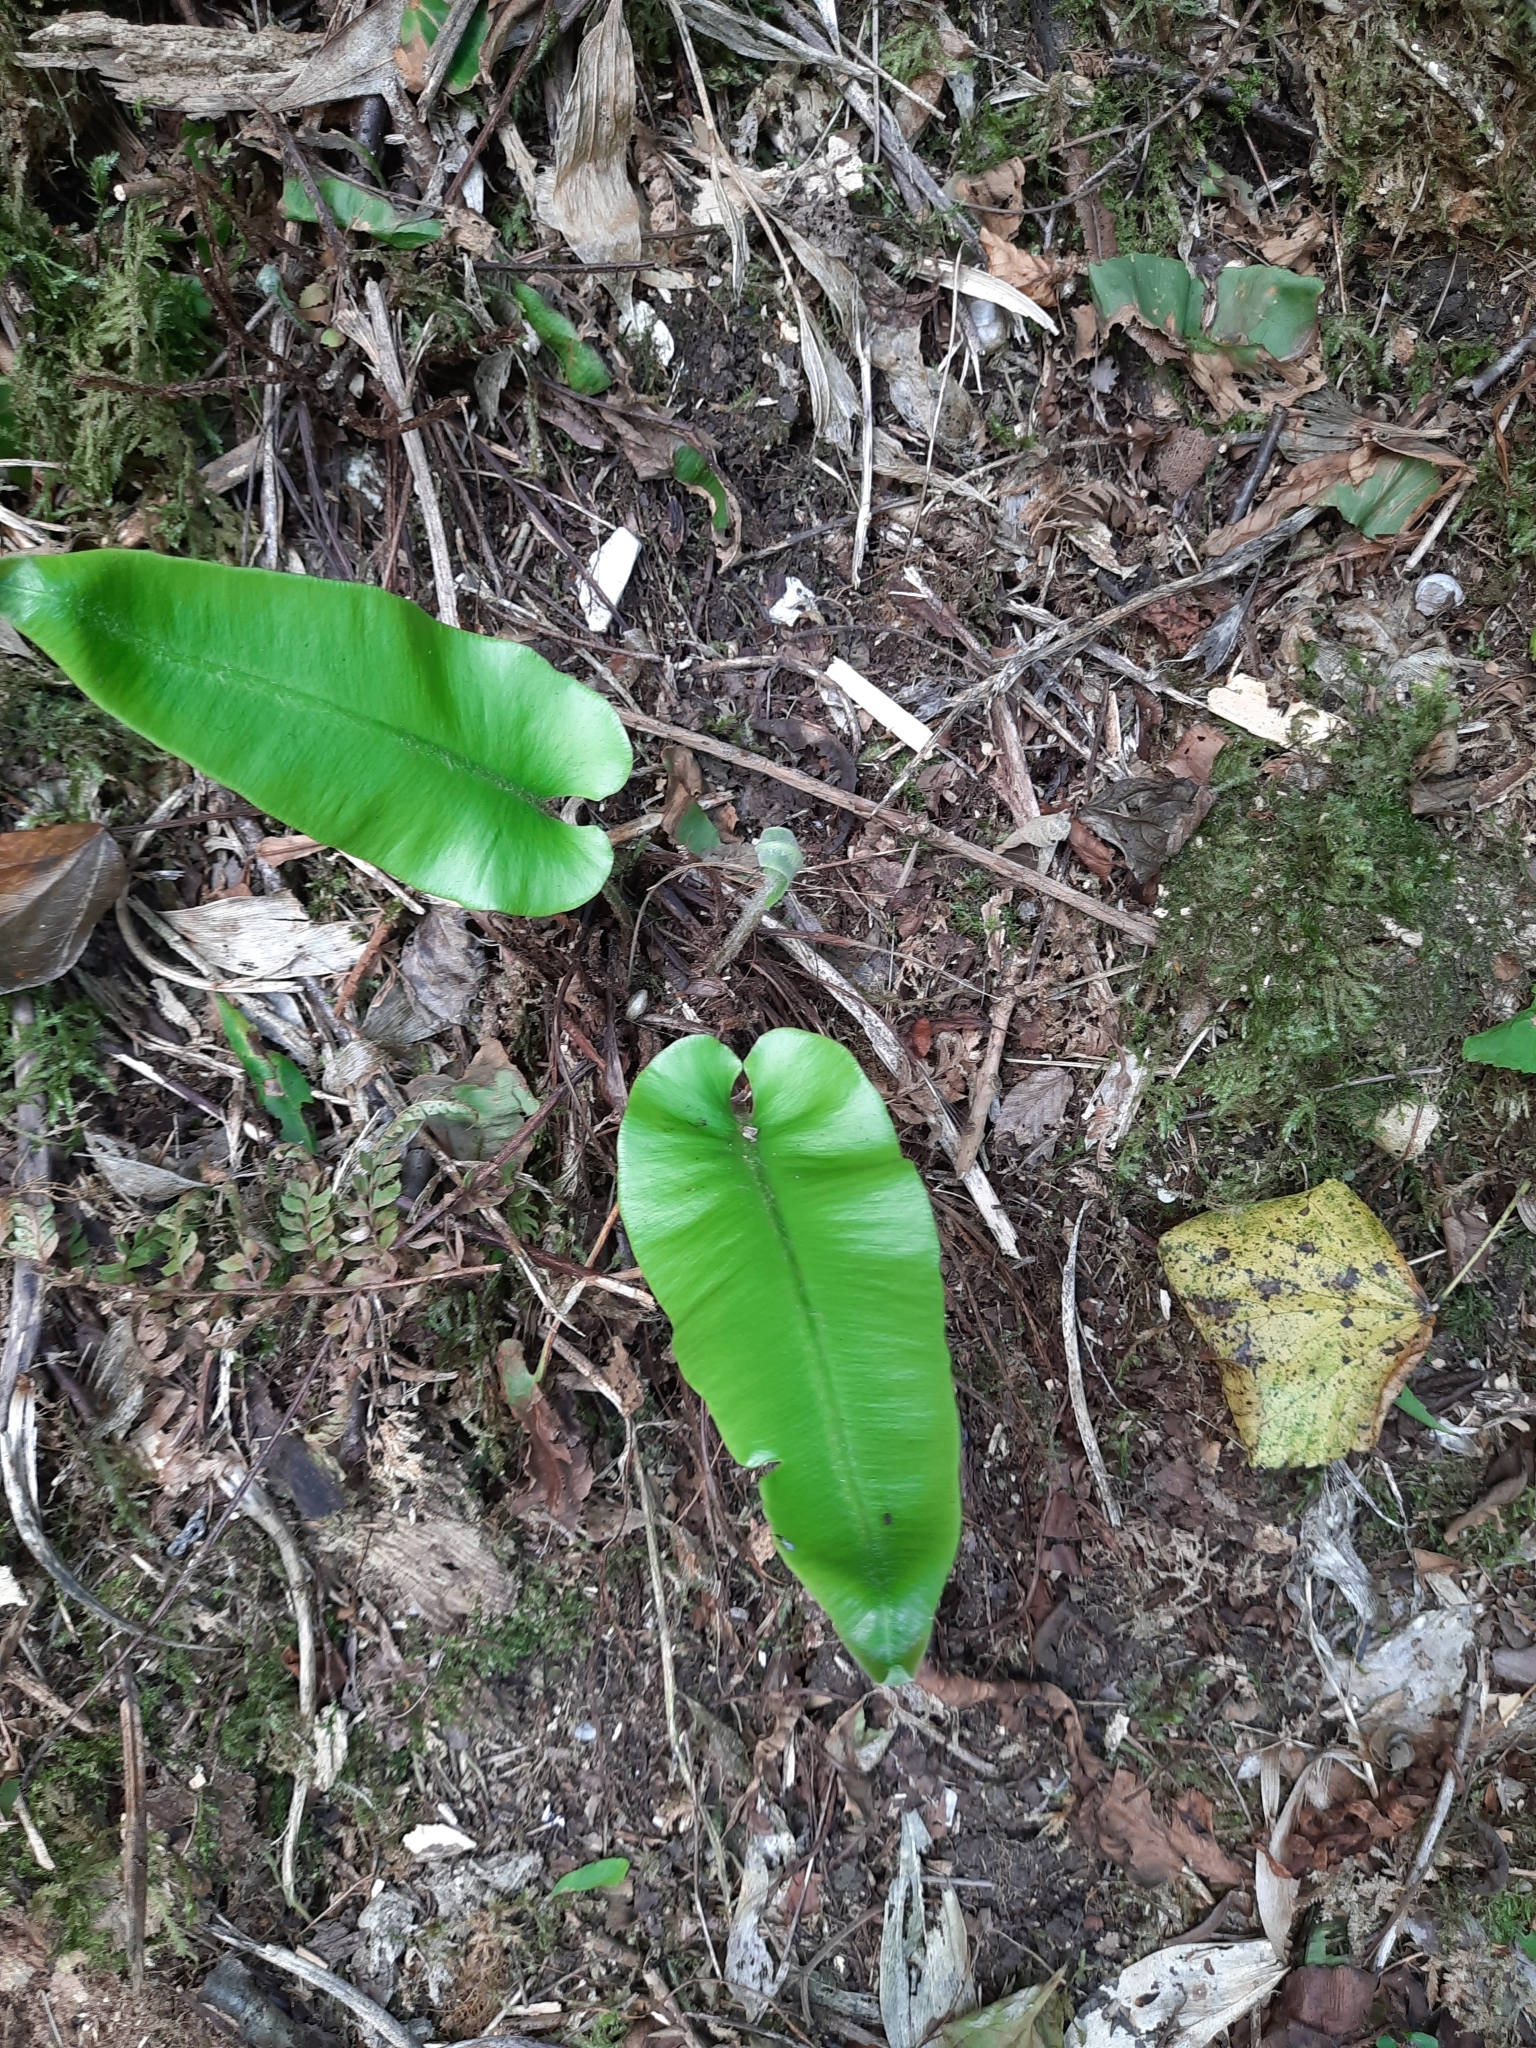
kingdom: Plantae
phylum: Tracheophyta
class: Polypodiopsida
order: Polypodiales
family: Aspleniaceae
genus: Asplenium
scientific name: Asplenium scolopendrium
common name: Hart's-tongue fern
